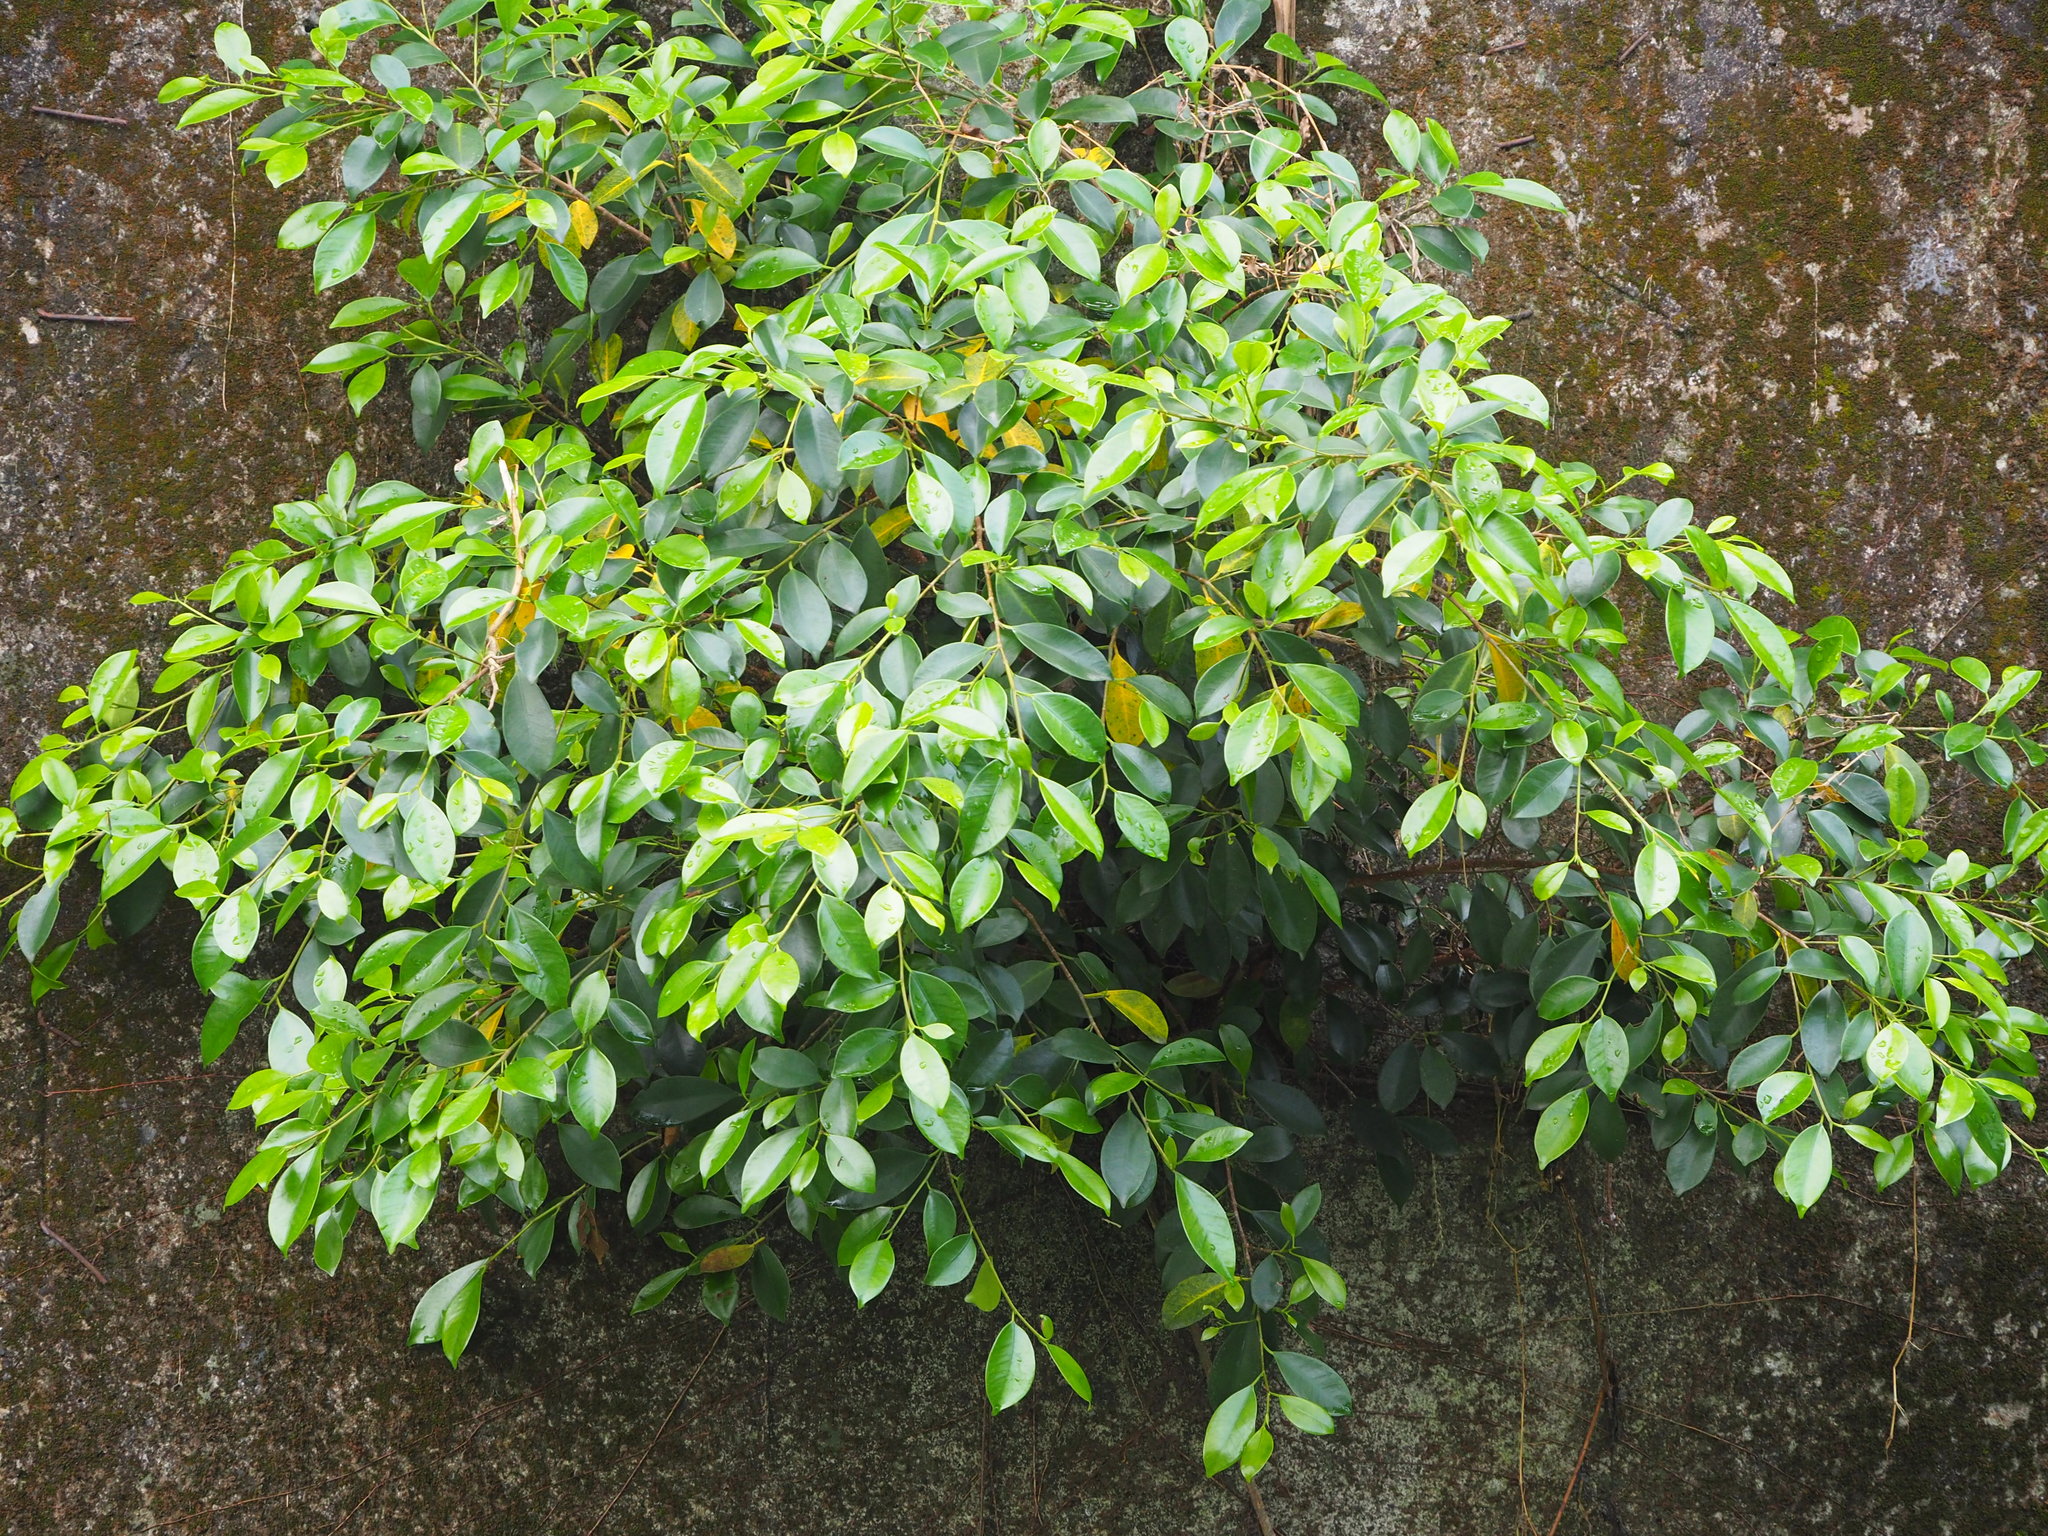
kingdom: Plantae
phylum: Tracheophyta
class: Magnoliopsida
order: Rosales
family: Moraceae
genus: Ficus
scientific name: Ficus microcarpa
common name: Chinese banyan
